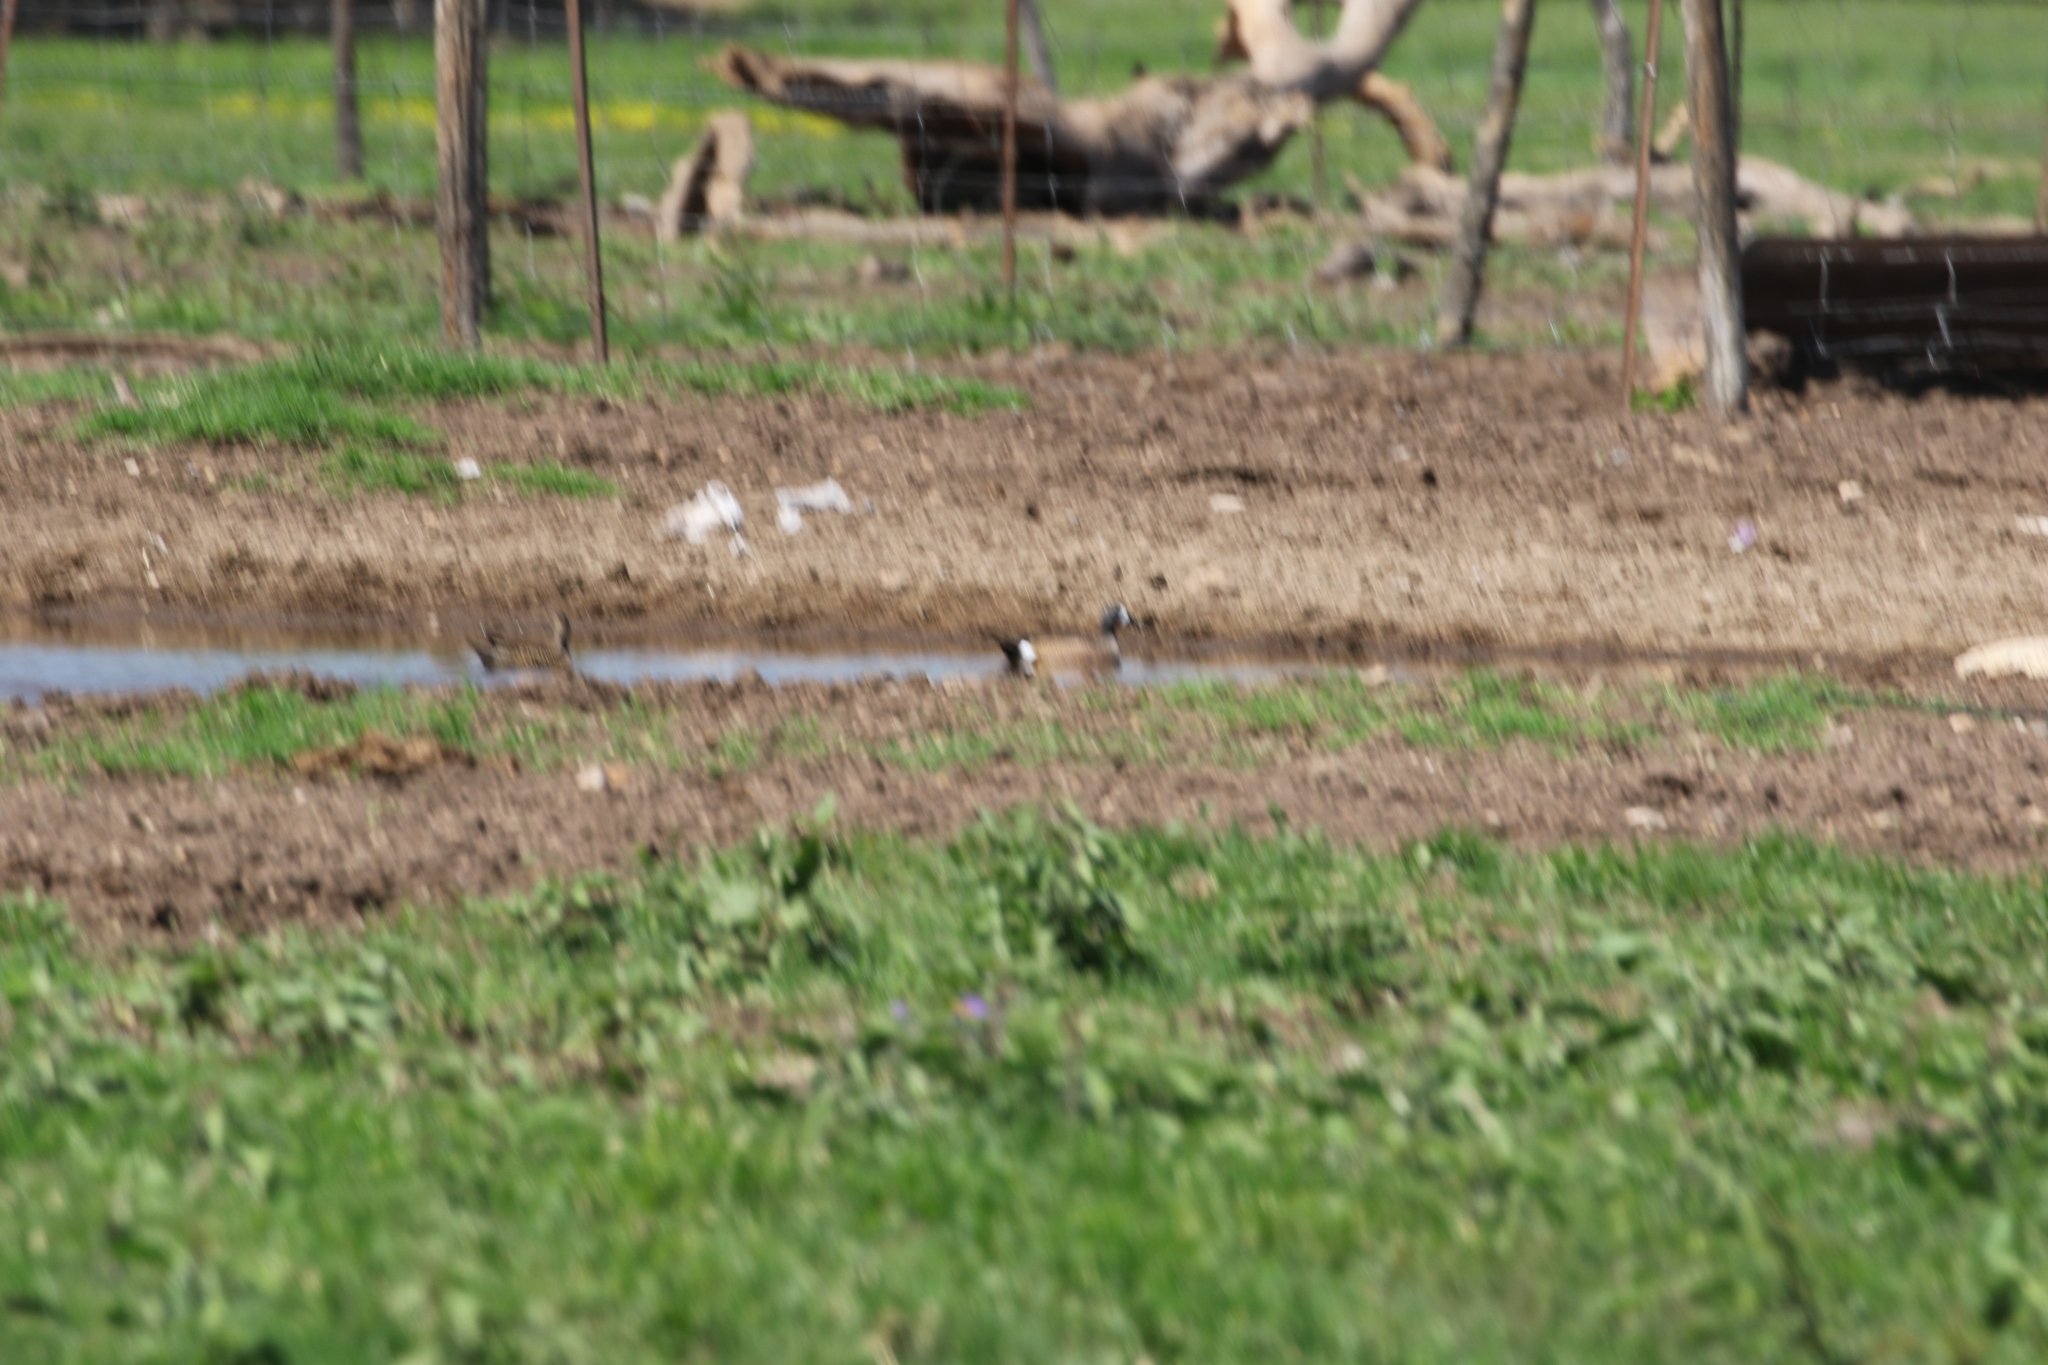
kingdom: Animalia
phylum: Chordata
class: Aves
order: Anseriformes
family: Anatidae
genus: Spatula
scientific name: Spatula discors
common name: Blue-winged teal
